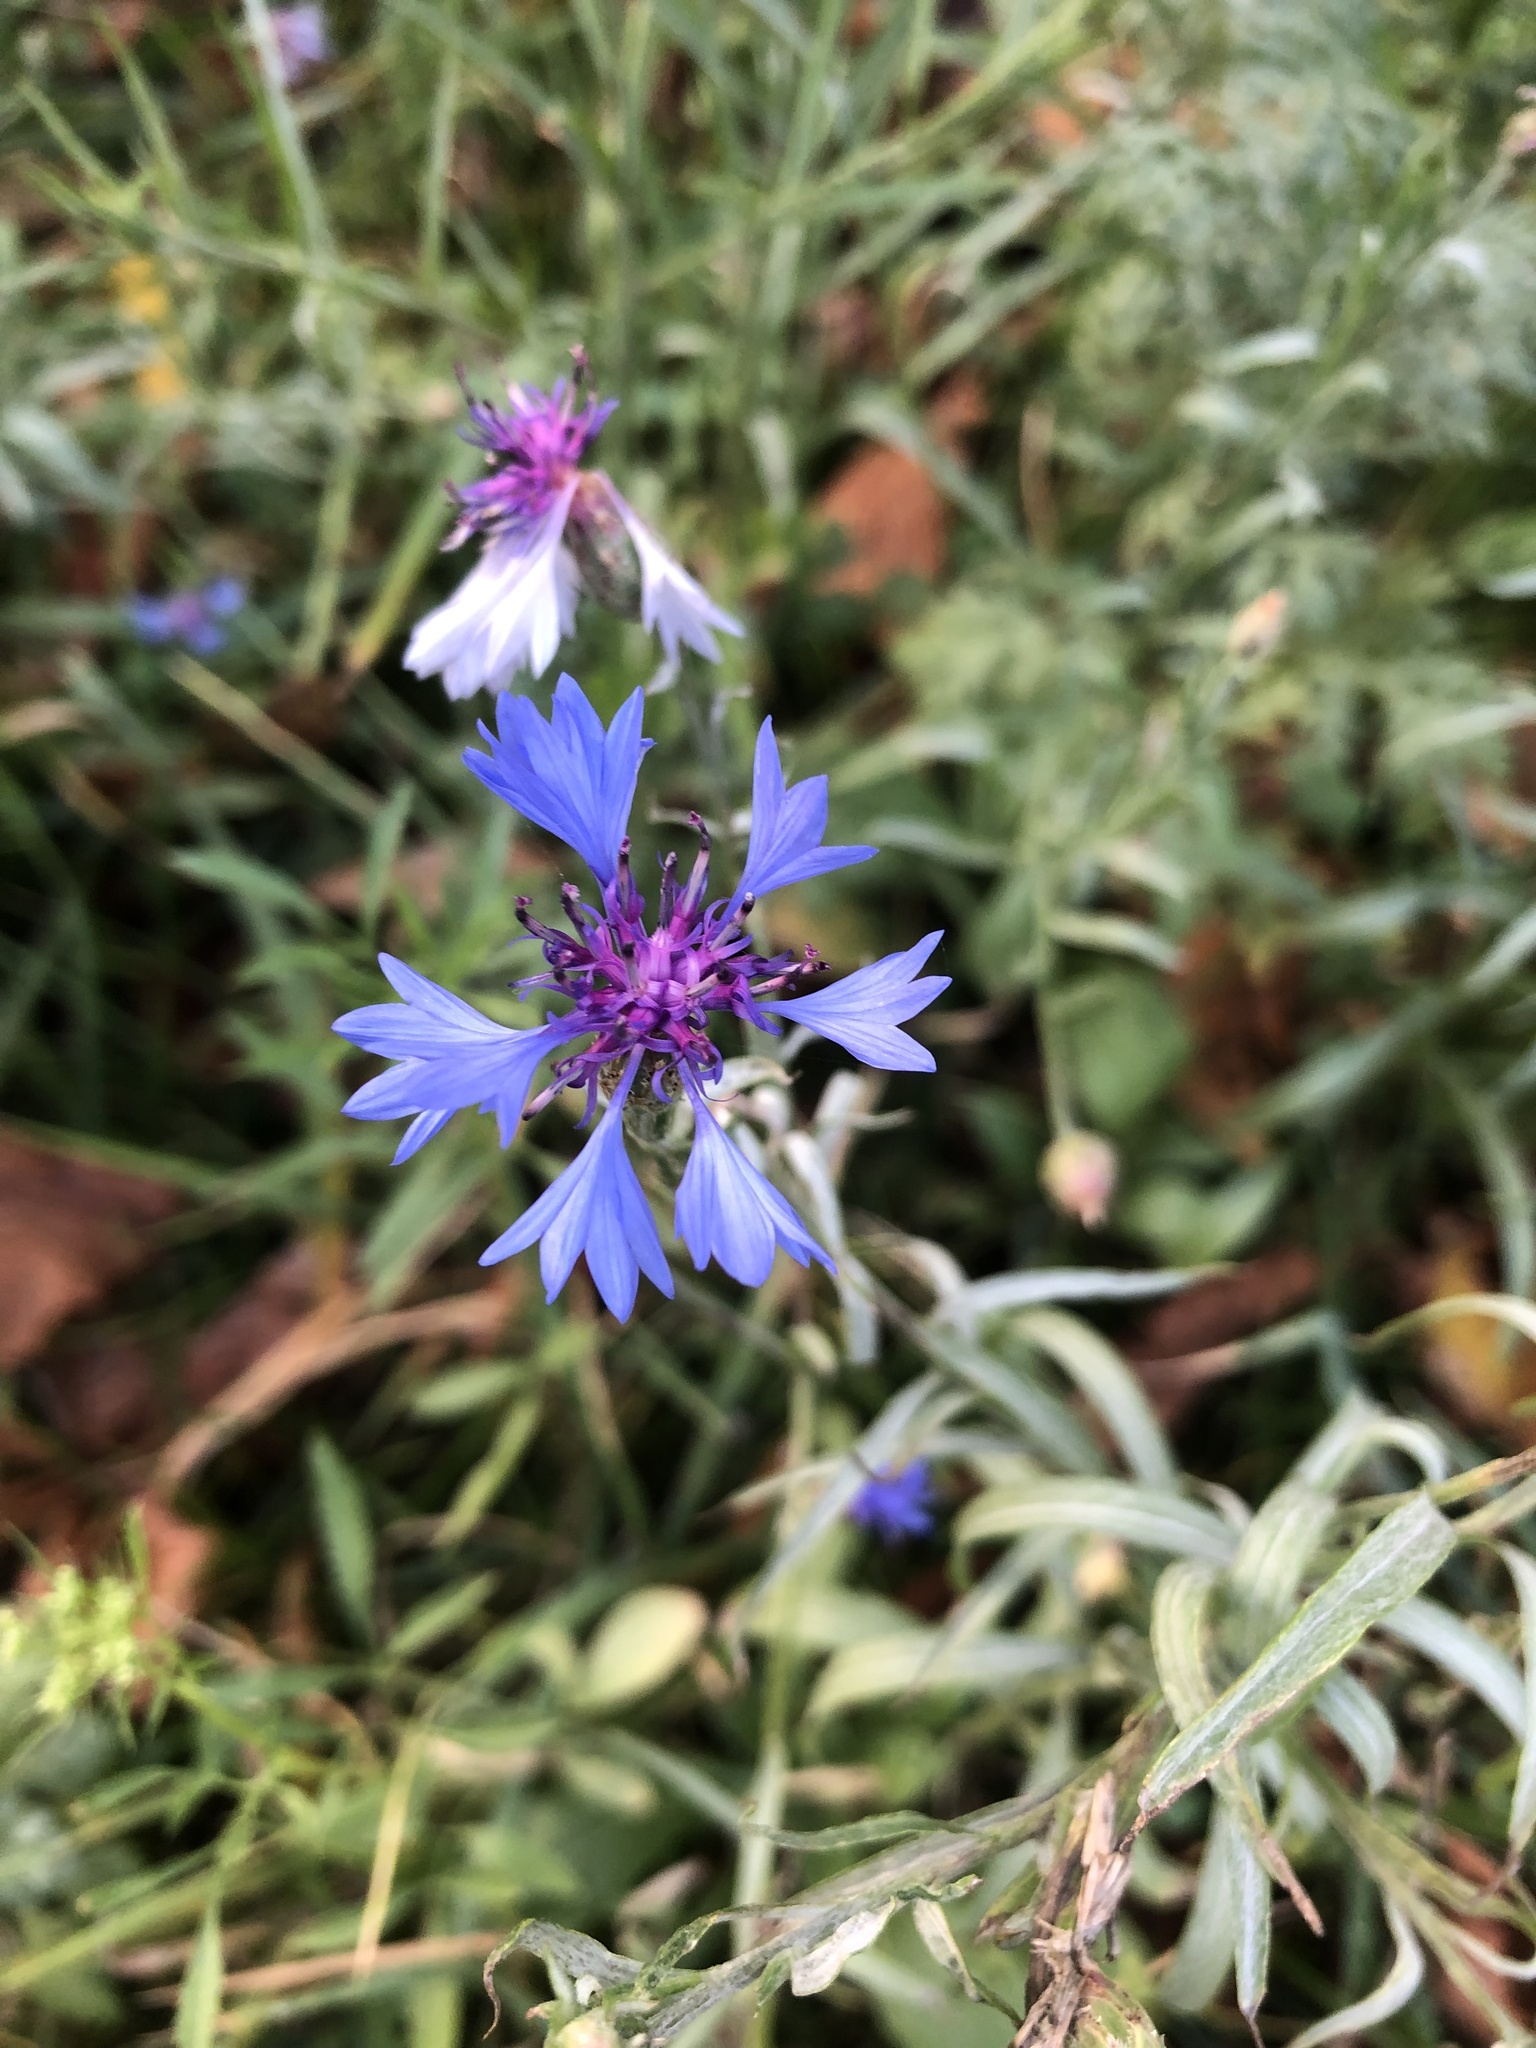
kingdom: Plantae
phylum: Tracheophyta
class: Magnoliopsida
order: Asterales
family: Asteraceae
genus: Centaurea
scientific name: Centaurea cyanus
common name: Cornflower
